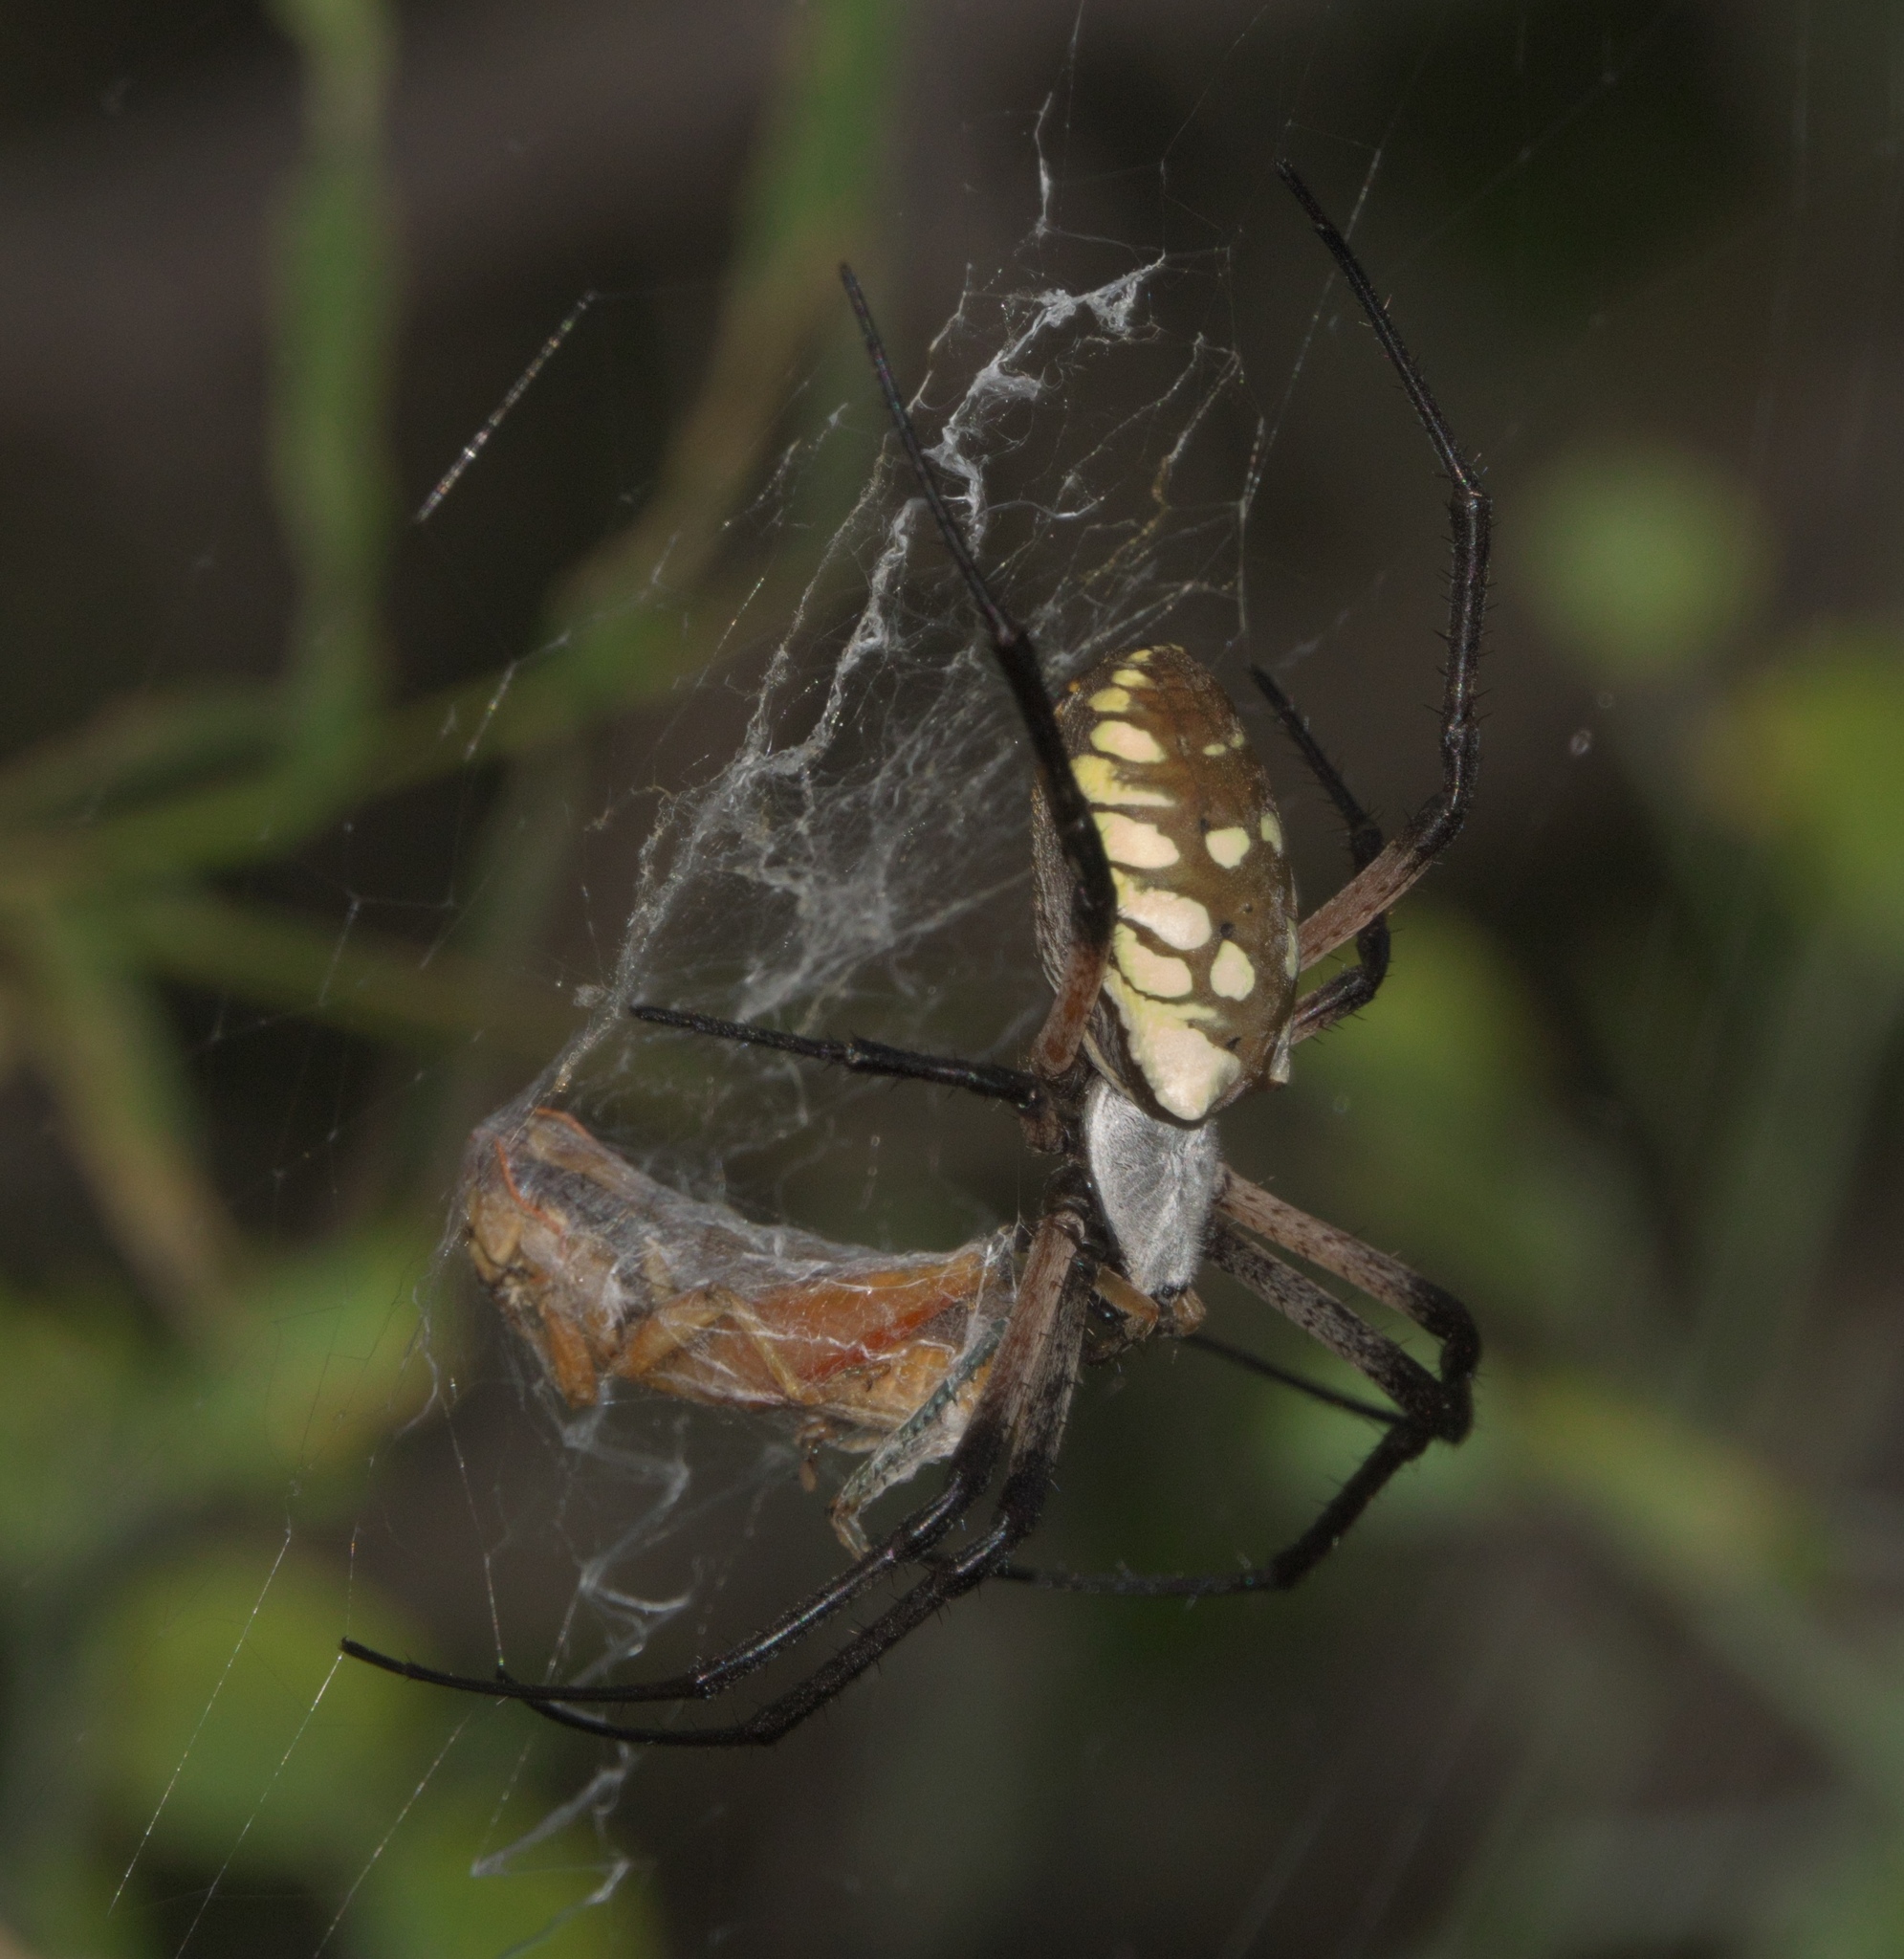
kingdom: Animalia
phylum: Arthropoda
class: Arachnida
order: Araneae
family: Araneidae
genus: Argiope
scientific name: Argiope aurantia
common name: Orb weavers
